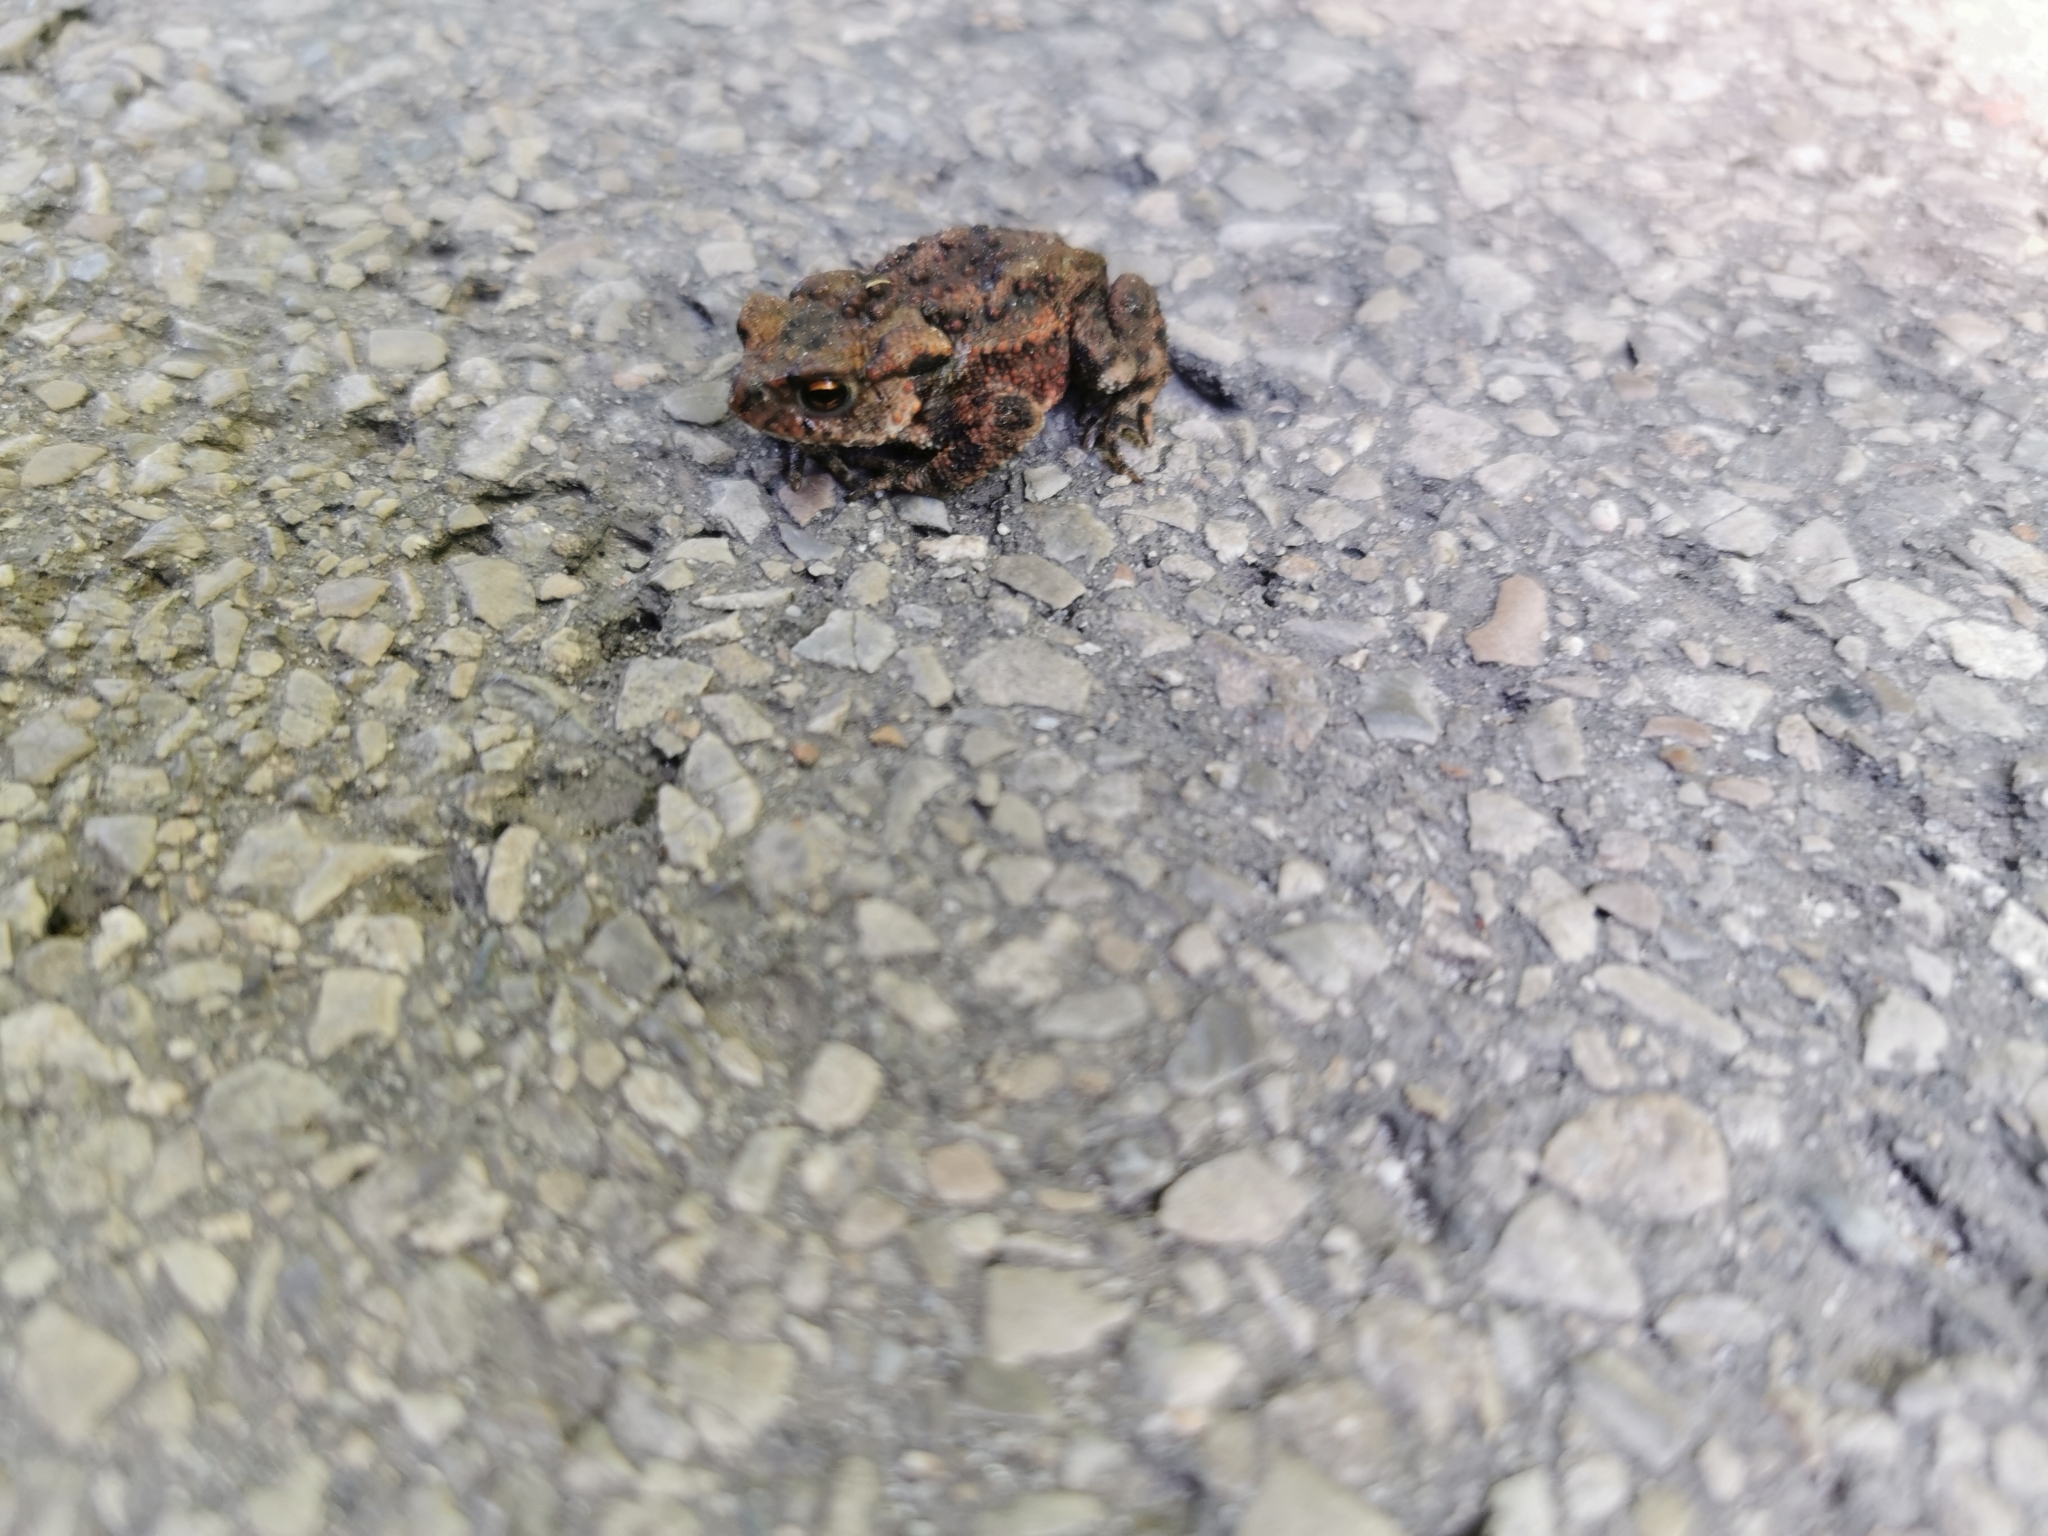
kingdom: Animalia
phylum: Chordata
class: Amphibia
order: Anura
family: Bufonidae
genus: Bufo
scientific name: Bufo bufo
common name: Common toad
